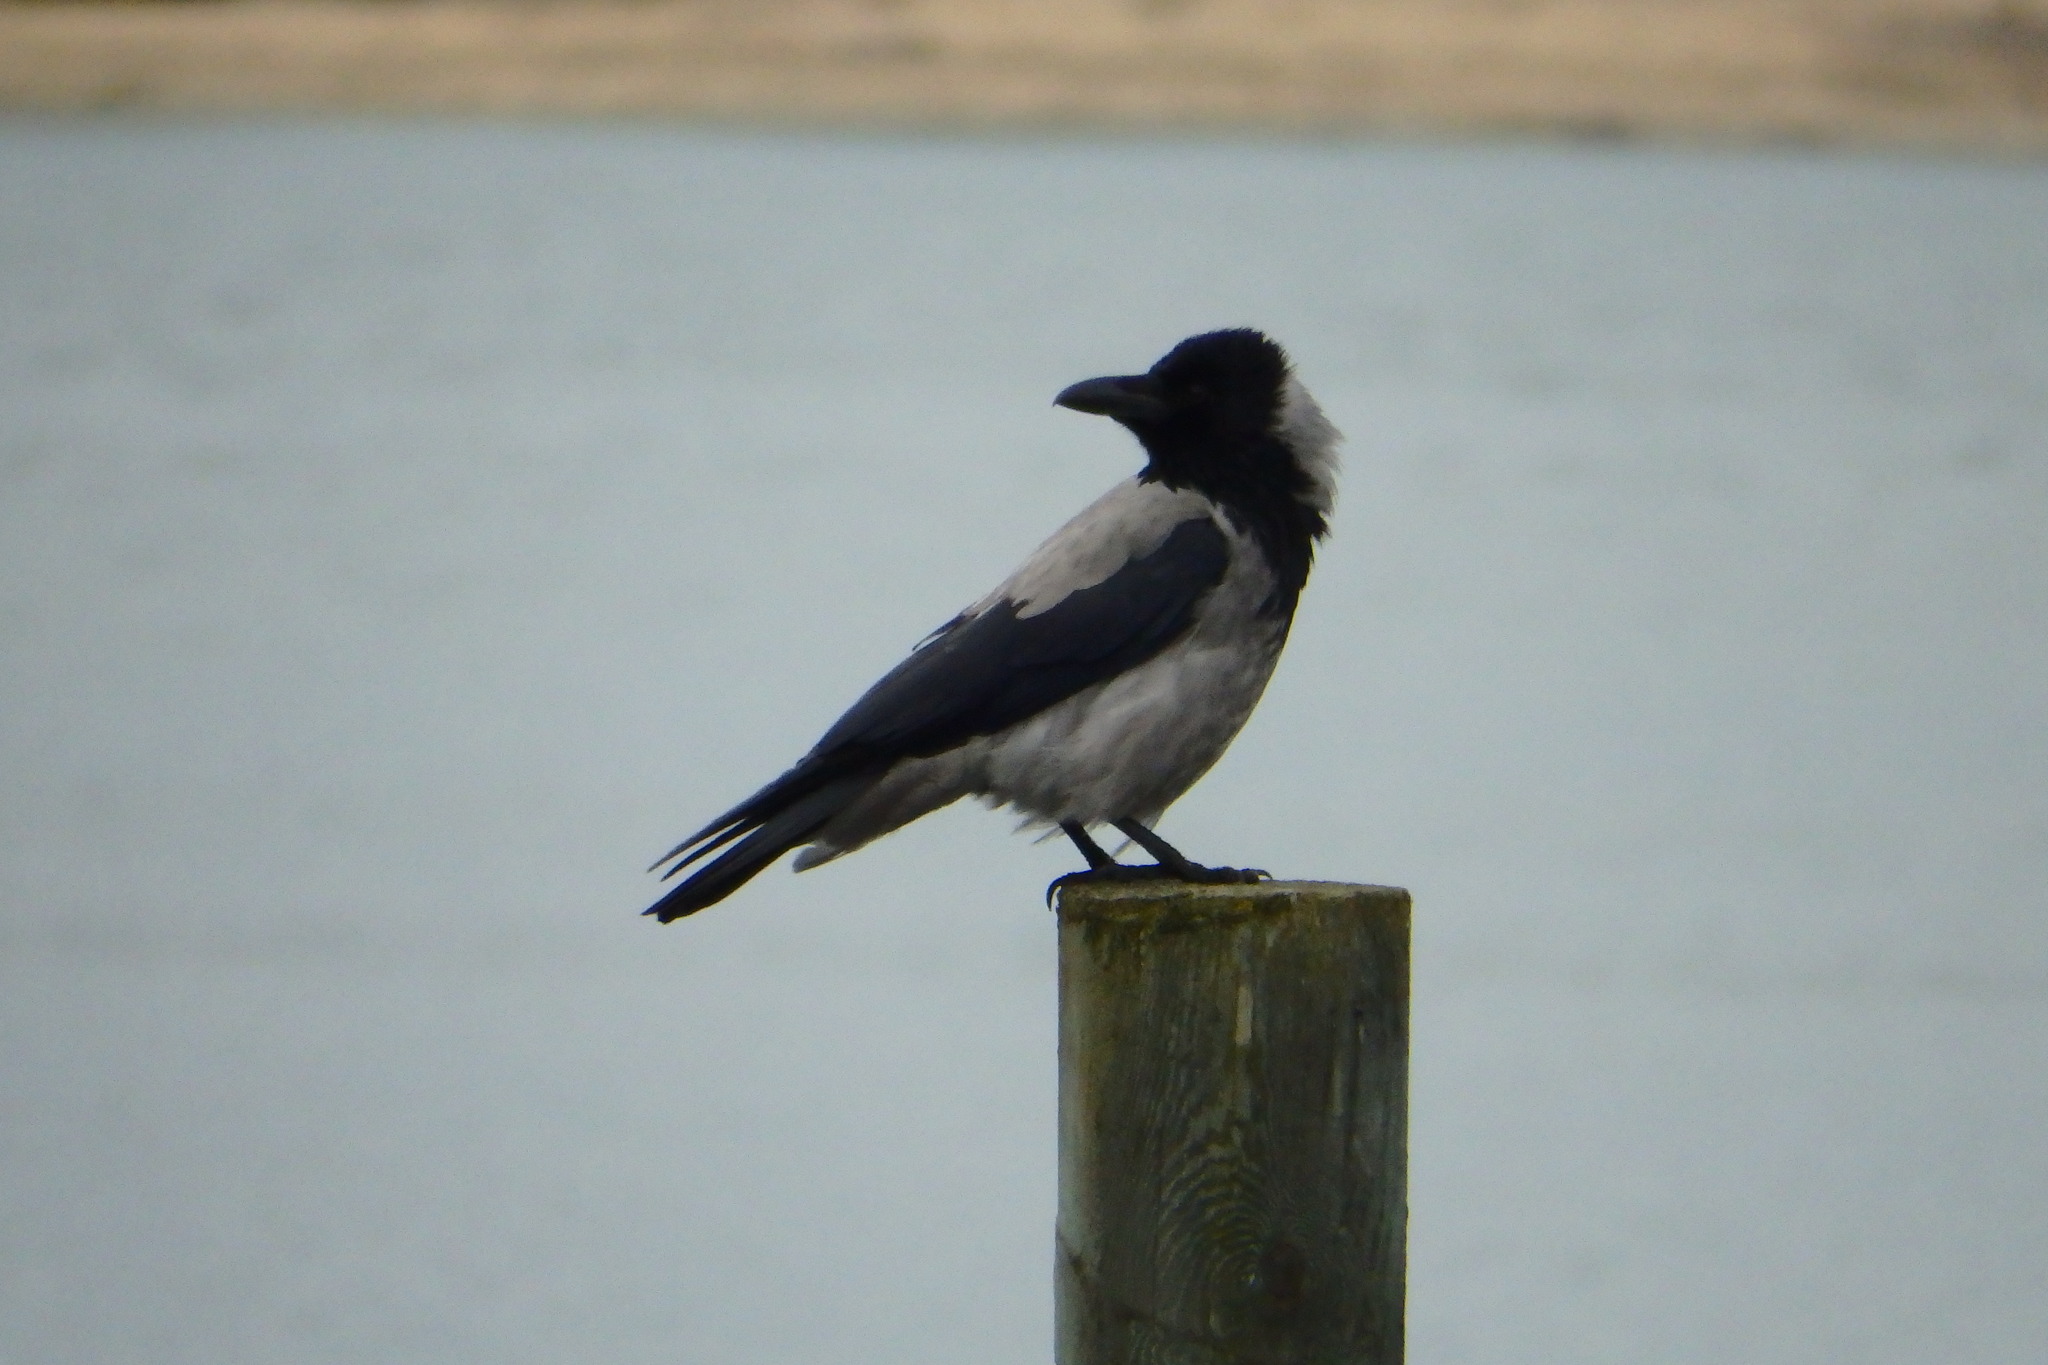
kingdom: Animalia
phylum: Chordata
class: Aves
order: Passeriformes
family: Corvidae
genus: Corvus
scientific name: Corvus cornix
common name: Hooded crow
